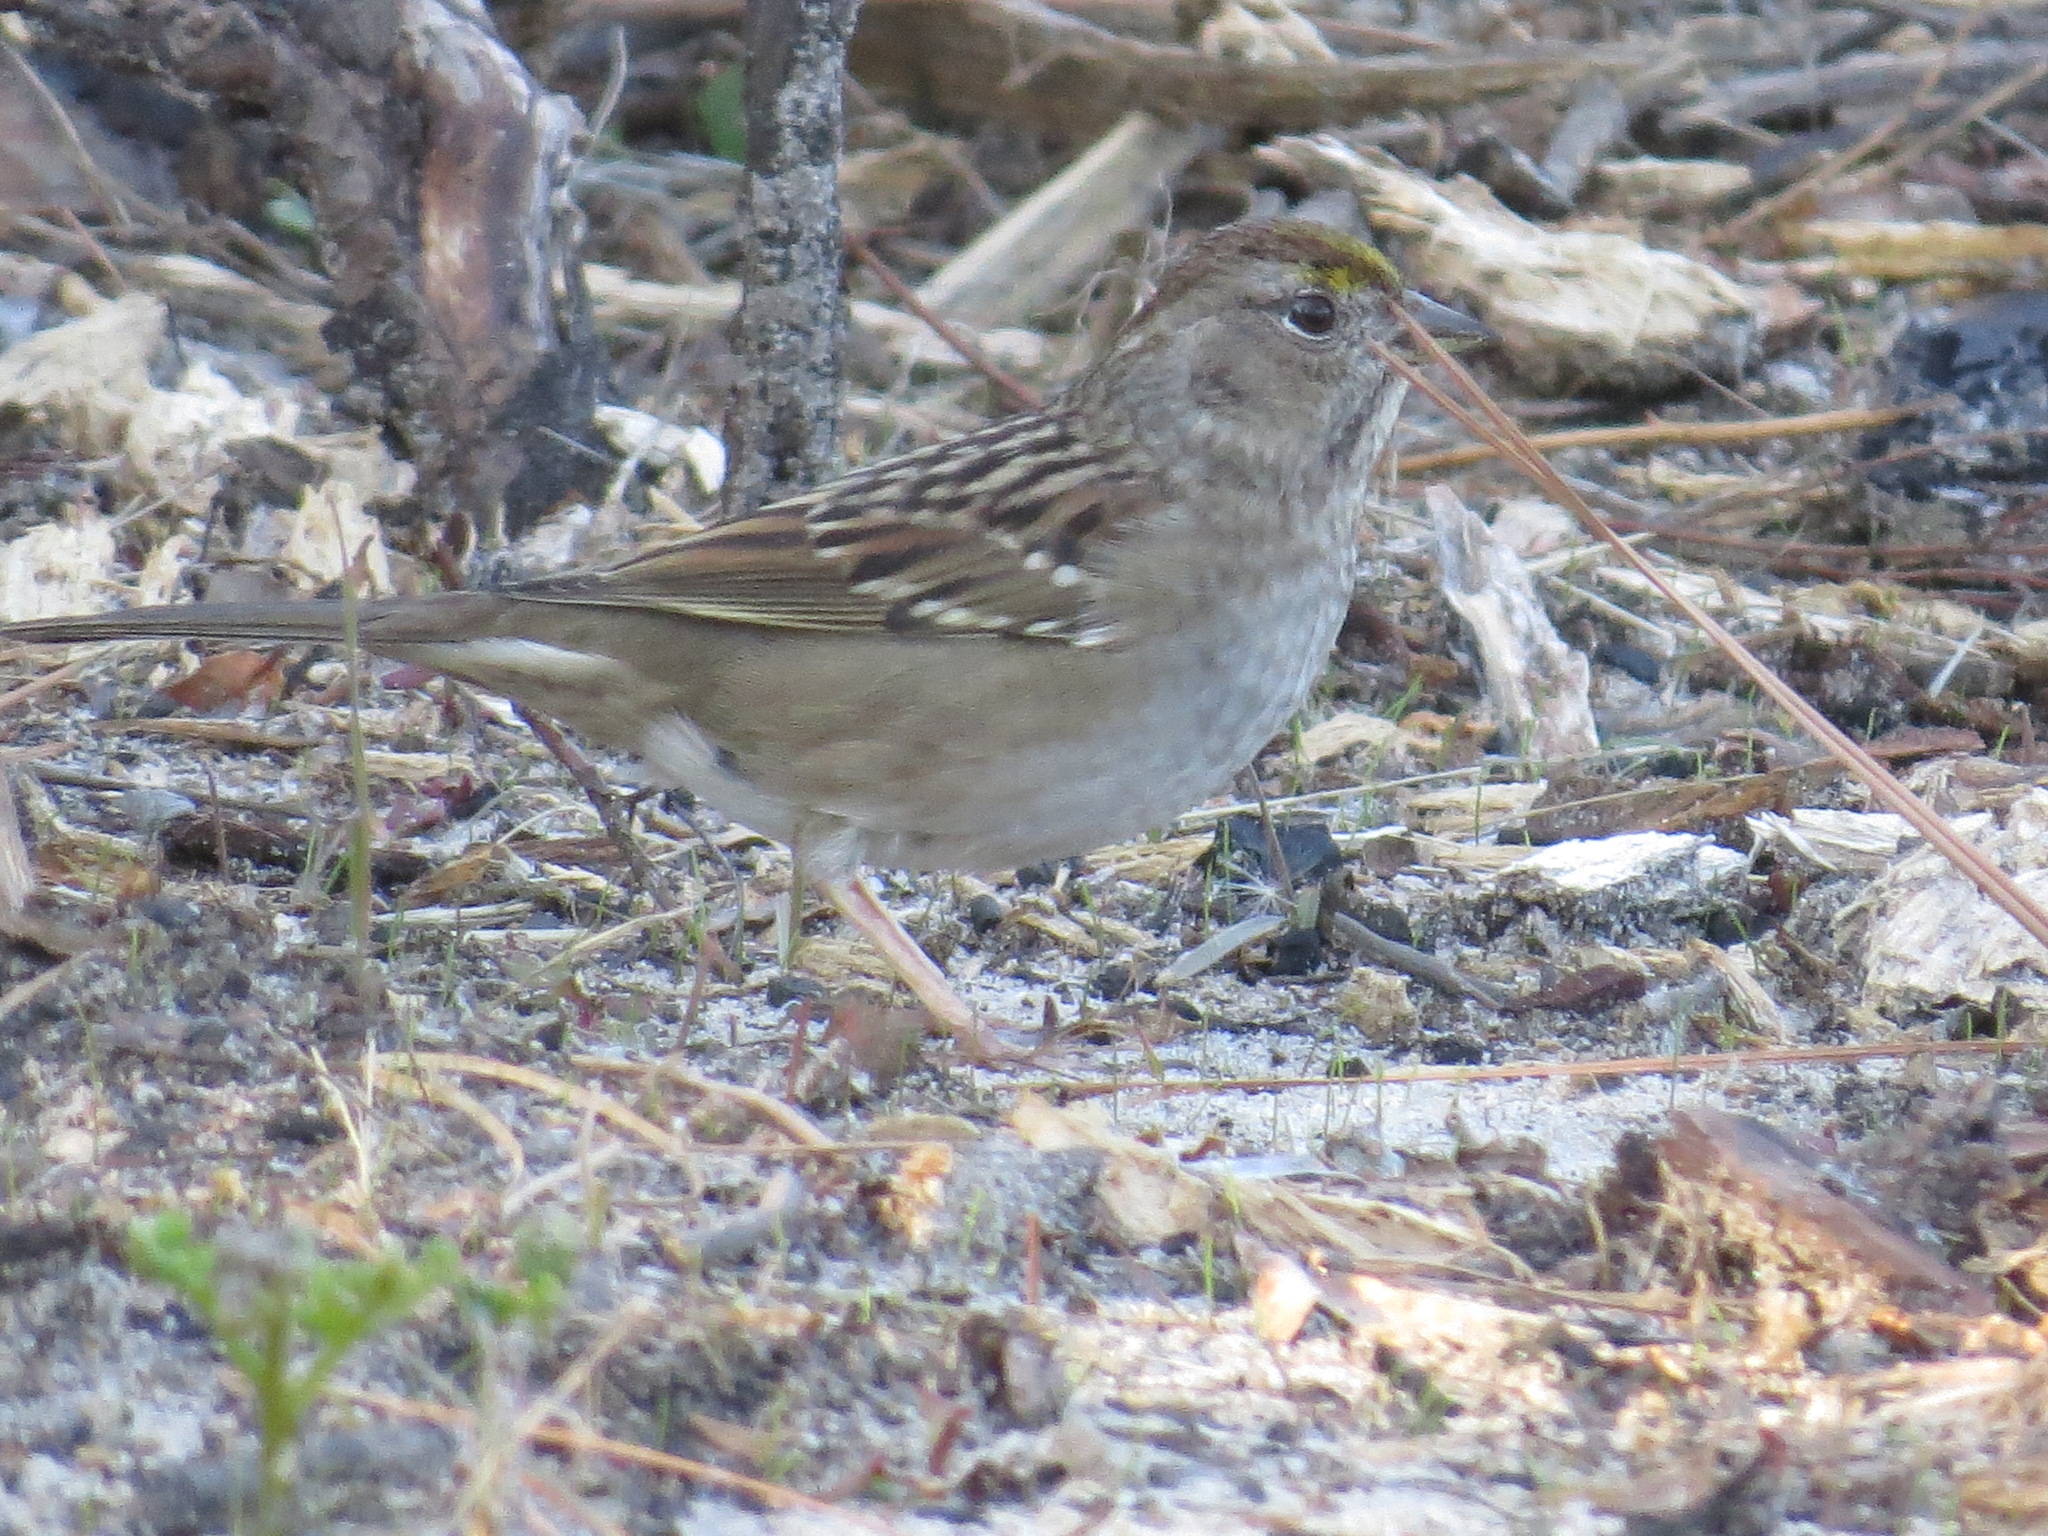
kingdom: Animalia
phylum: Chordata
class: Aves
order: Passeriformes
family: Passerellidae
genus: Zonotrichia
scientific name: Zonotrichia atricapilla
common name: Golden-crowned sparrow
